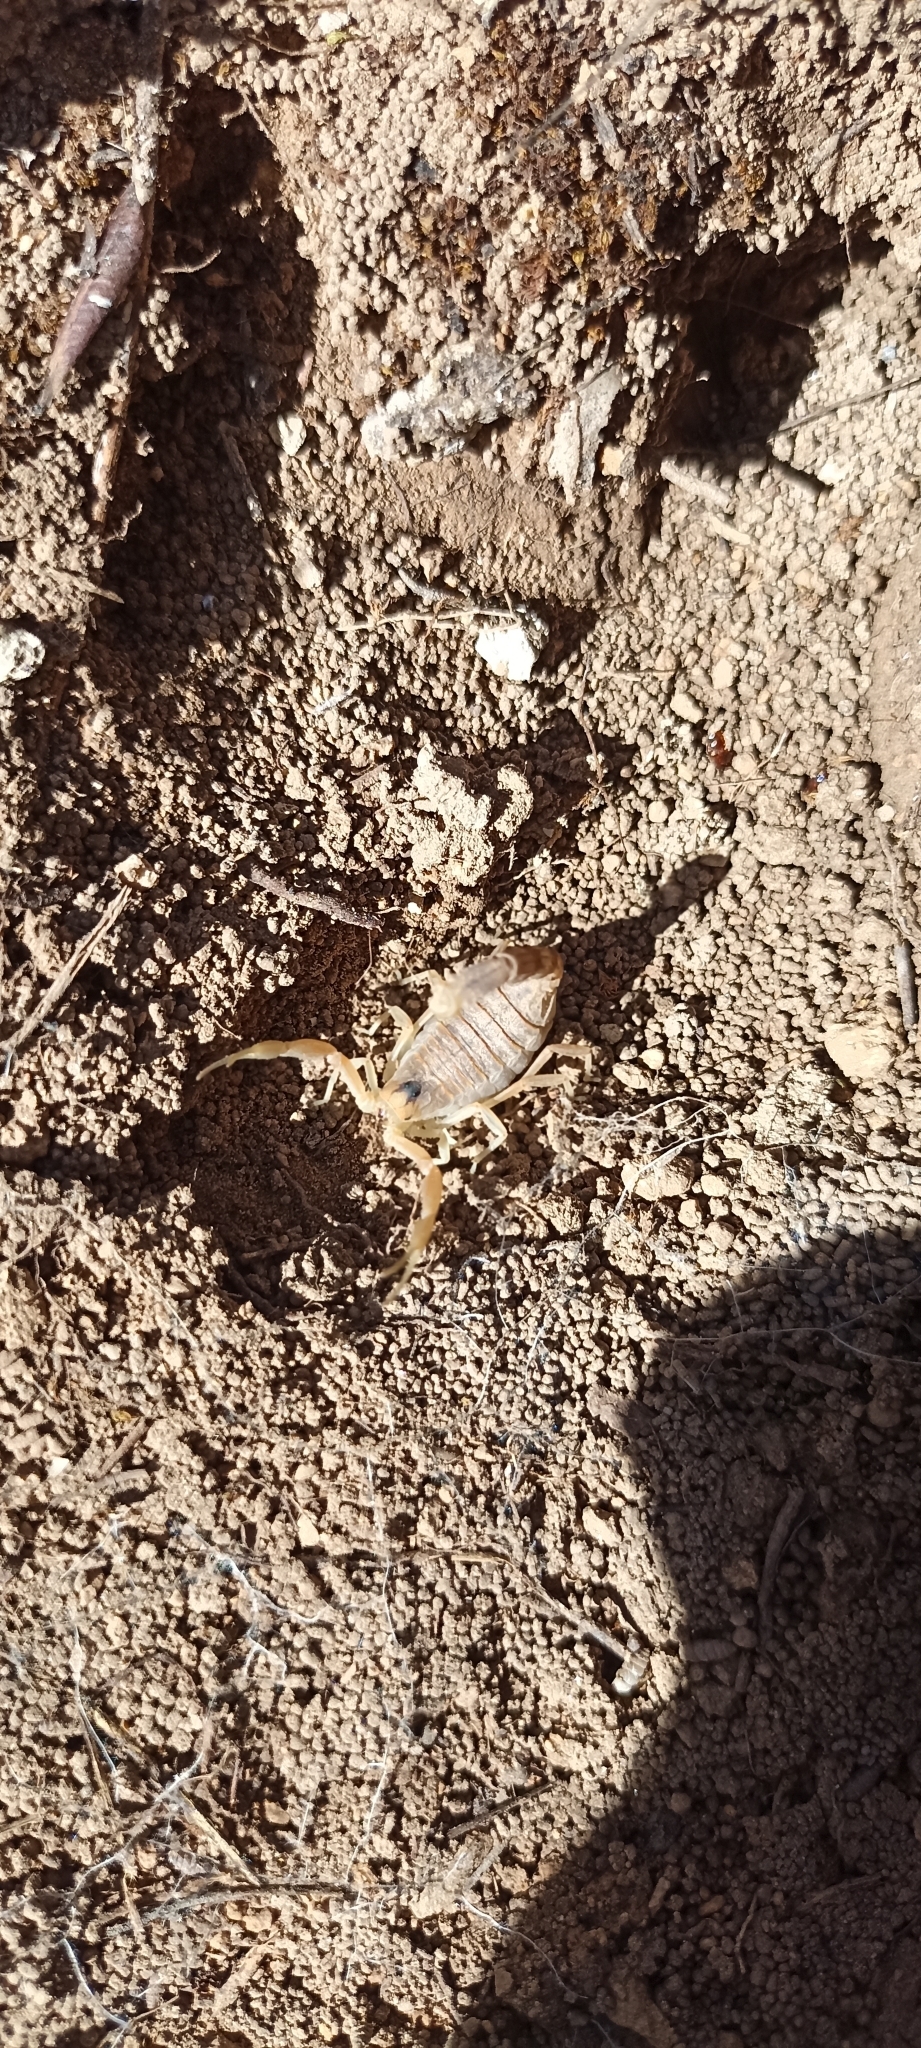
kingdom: Animalia
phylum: Arthropoda
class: Arachnida
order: Scorpiones
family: Buthidae
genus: Buthus
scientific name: Buthus occitanus
